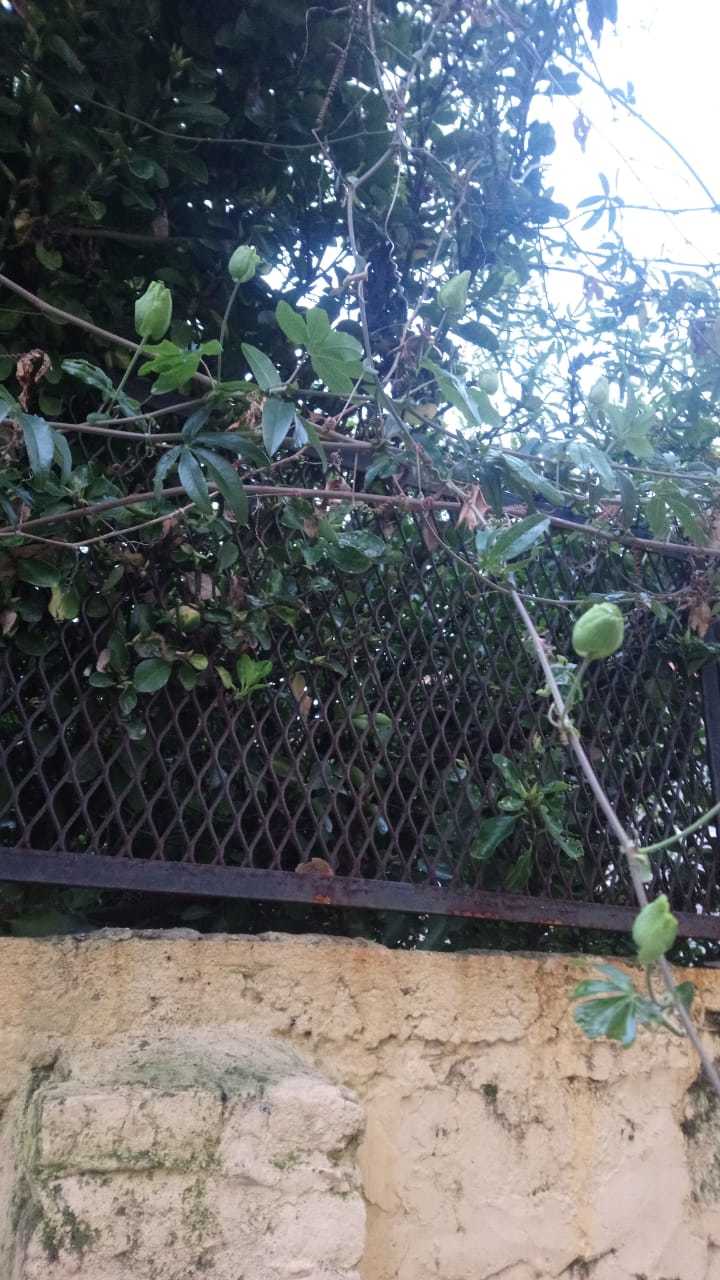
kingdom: Plantae
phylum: Tracheophyta
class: Magnoliopsida
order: Malpighiales
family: Passifloraceae
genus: Passiflora
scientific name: Passiflora caerulea
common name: Blue passionflower
